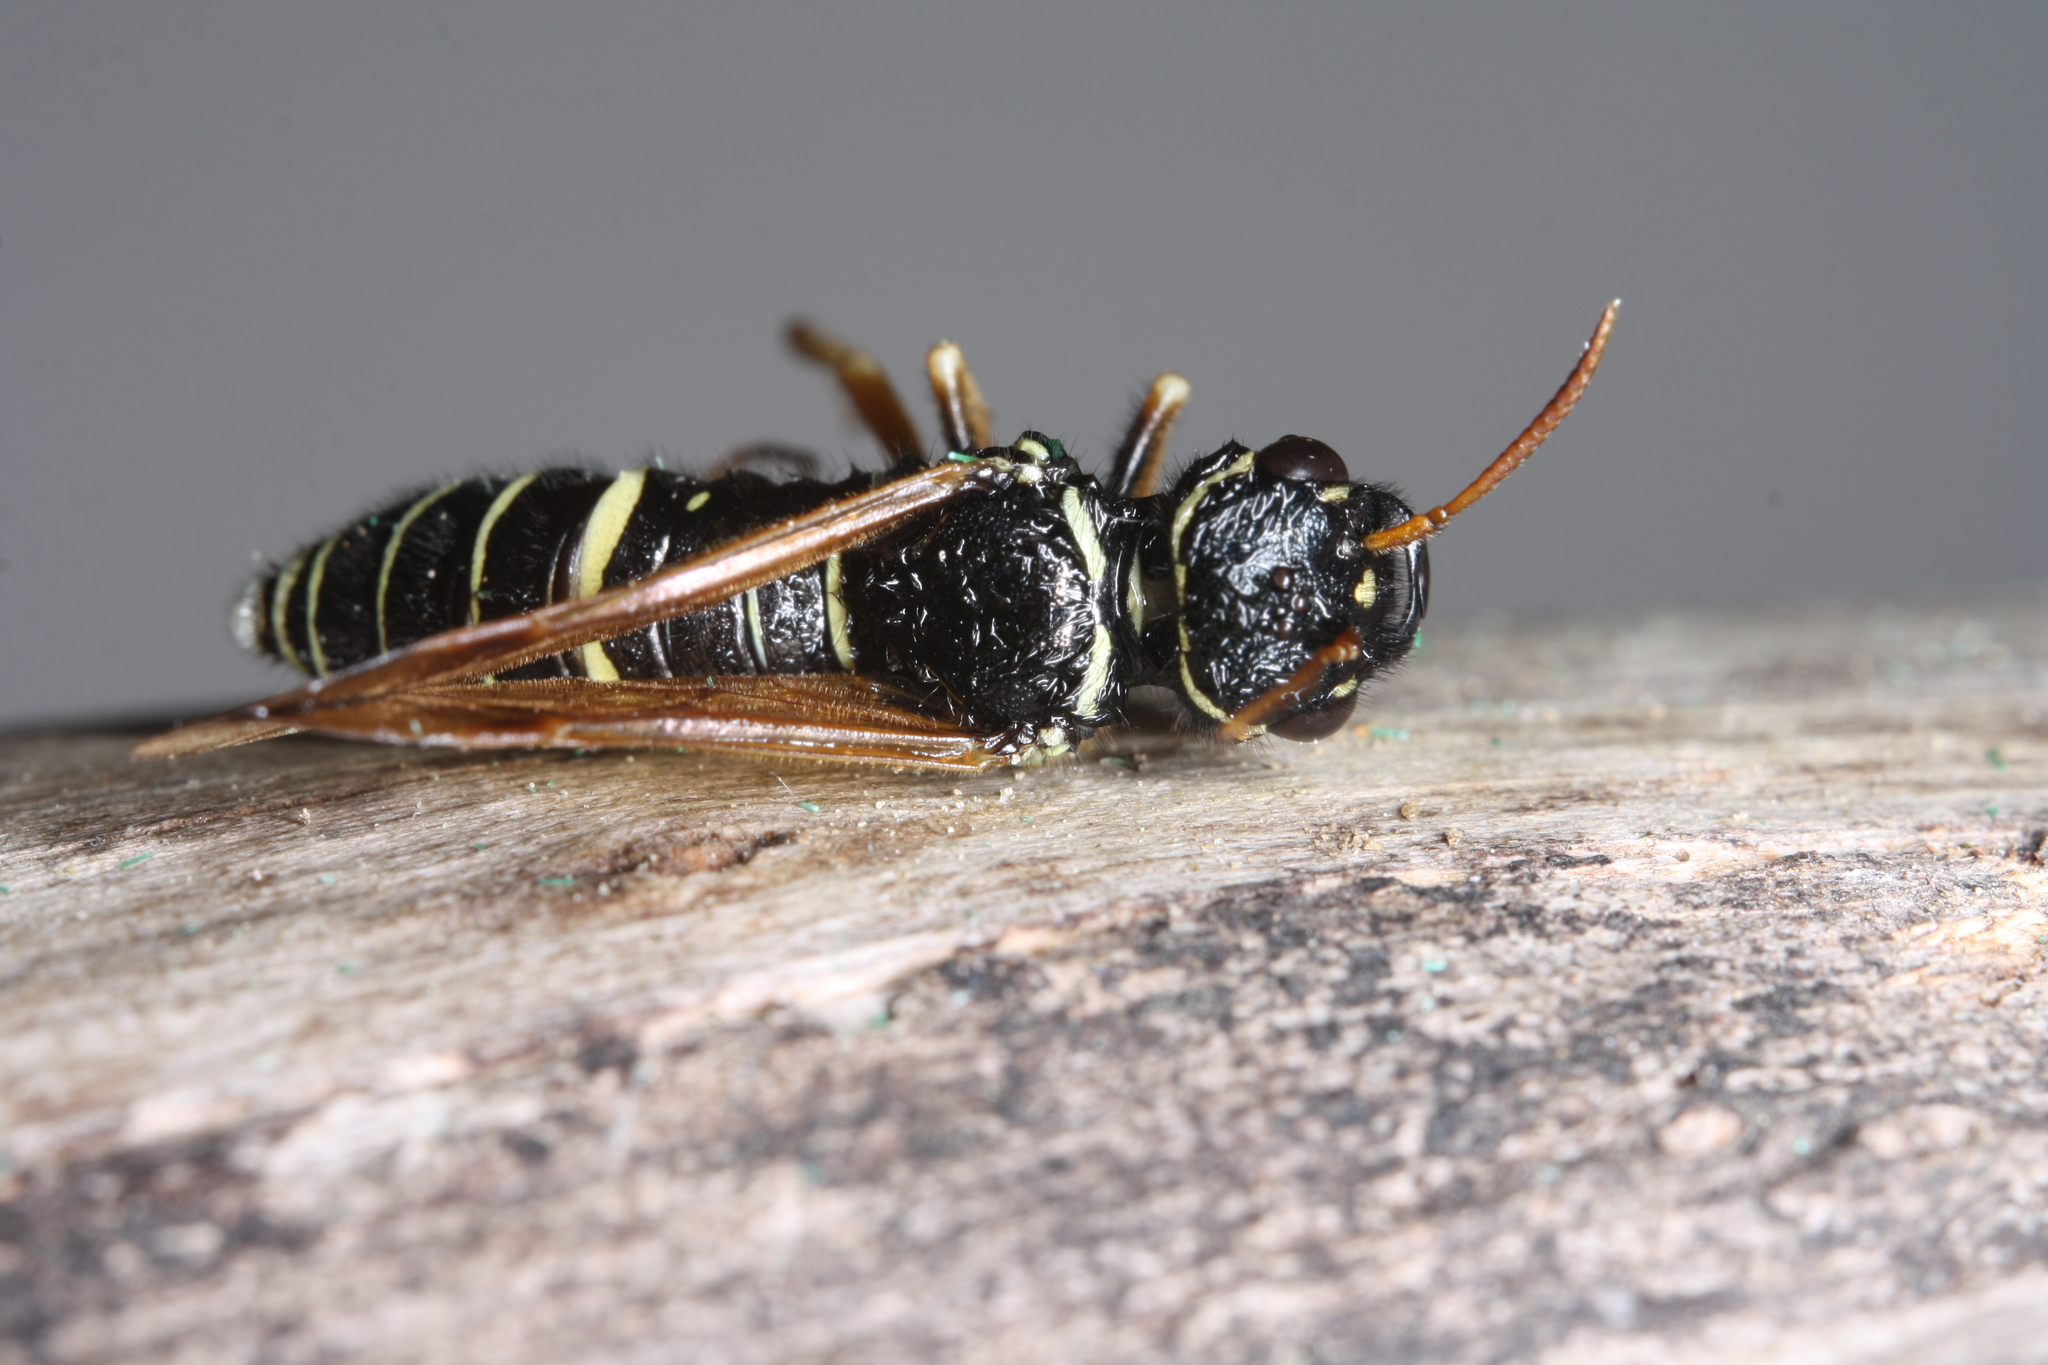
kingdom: Animalia
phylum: Arthropoda
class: Insecta
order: Hymenoptera
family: Megalodontesidae
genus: Megalodontes
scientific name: Megalodontes thor
